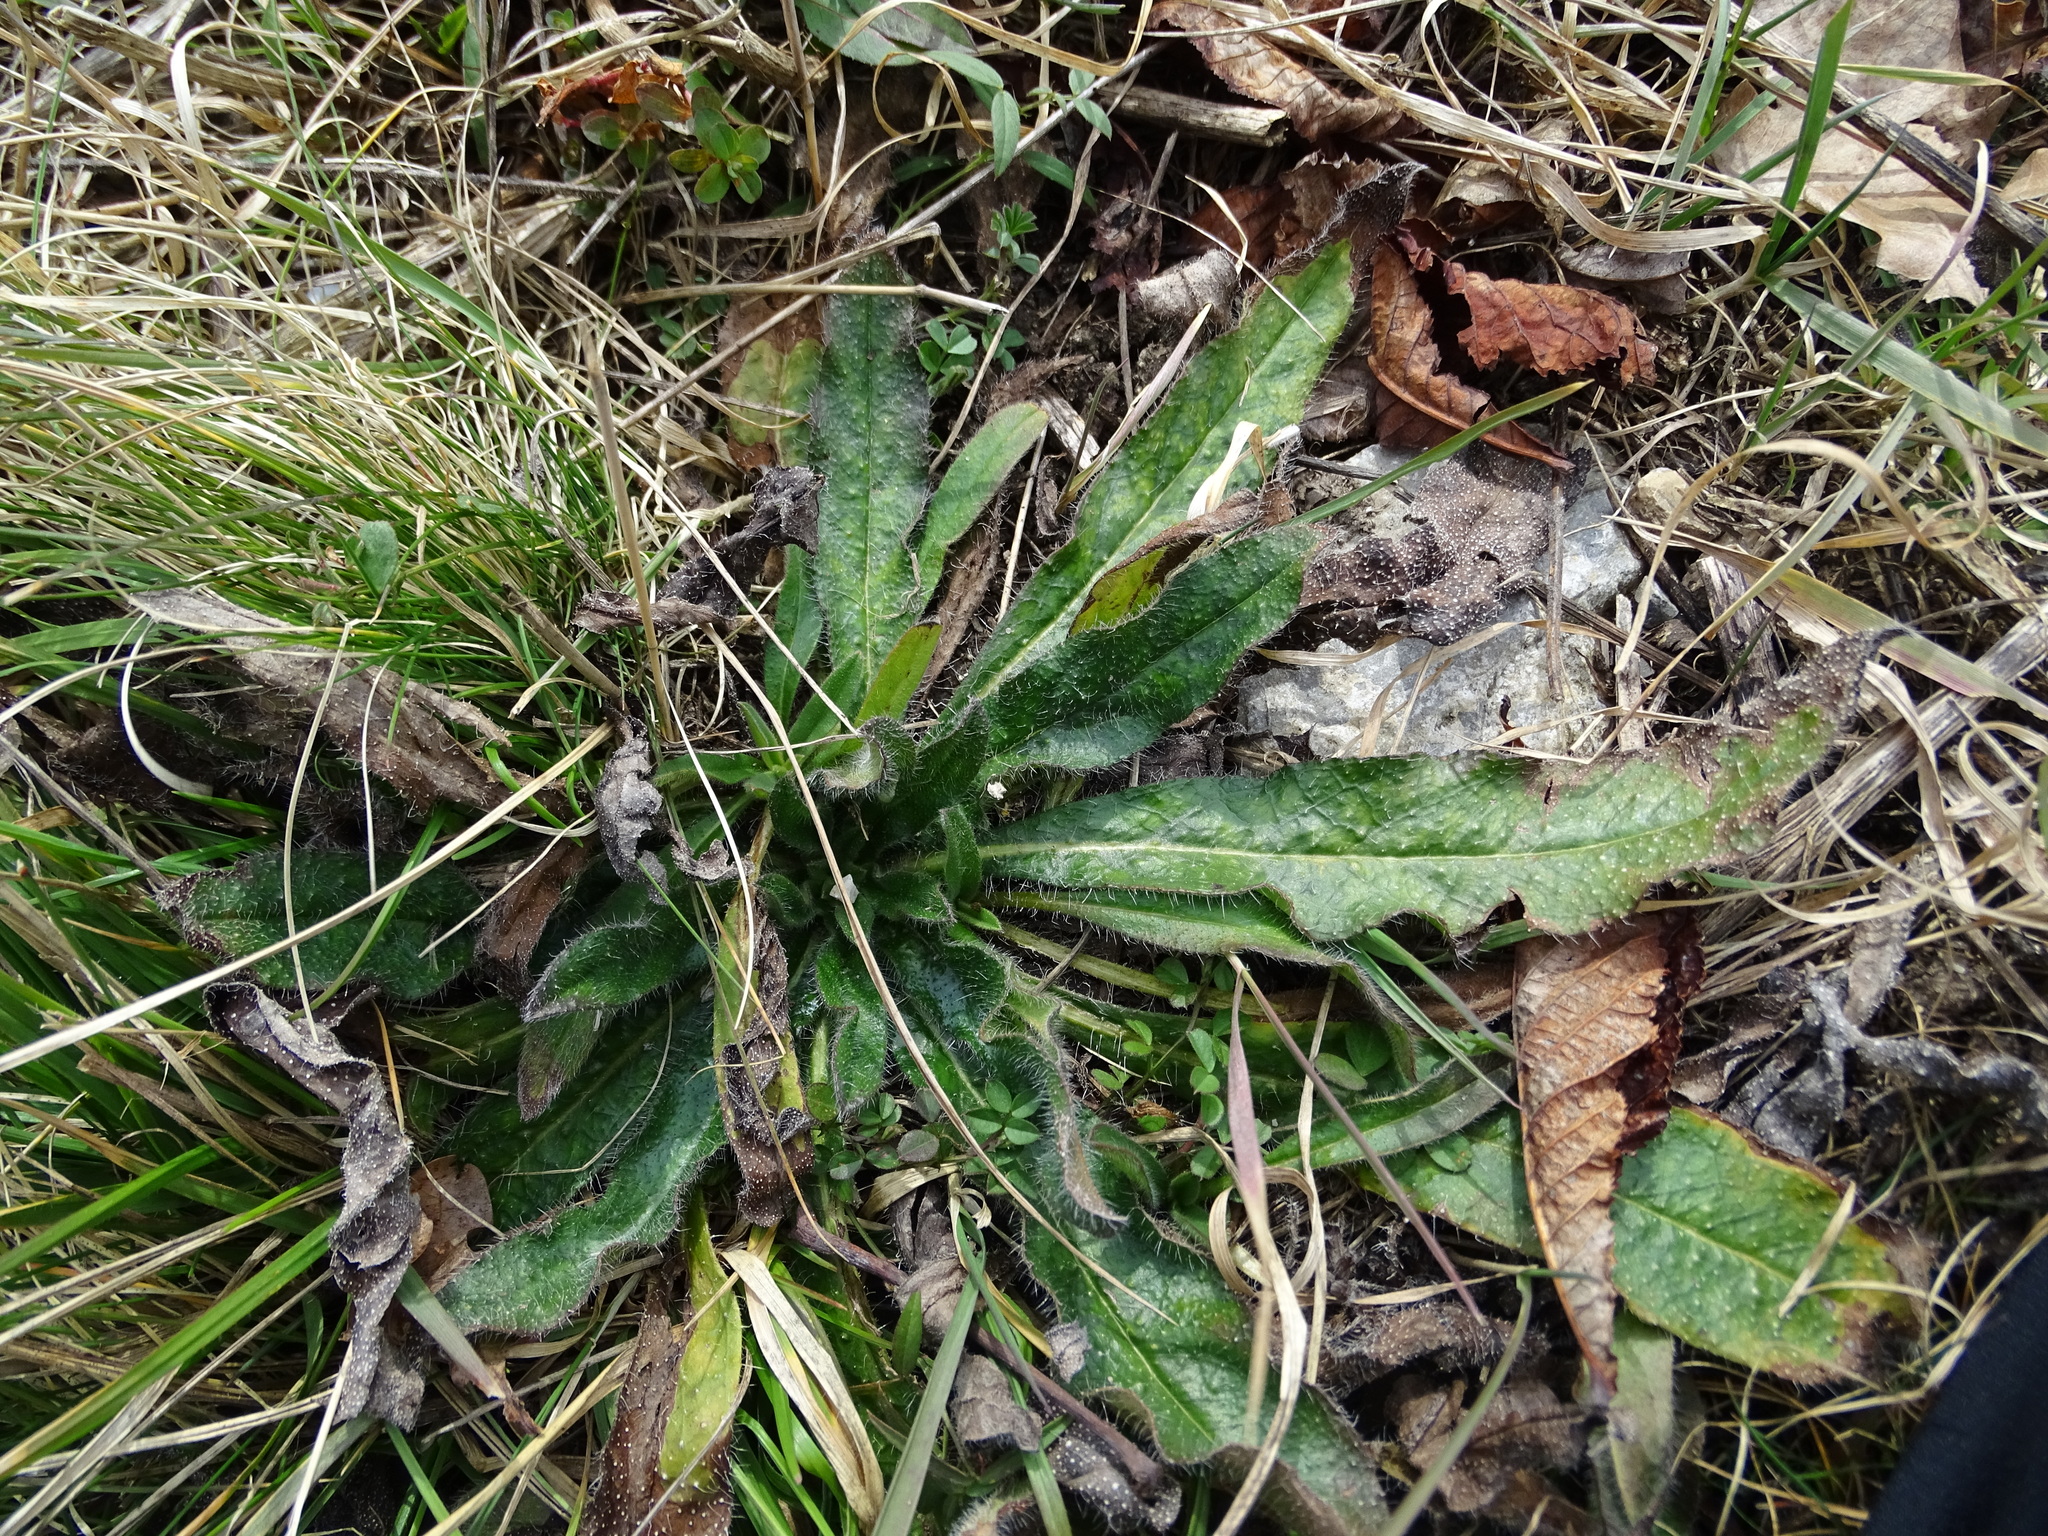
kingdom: Plantae
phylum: Tracheophyta
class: Magnoliopsida
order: Boraginales
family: Boraginaceae
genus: Echium
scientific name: Echium vulgare
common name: Common viper's bugloss
